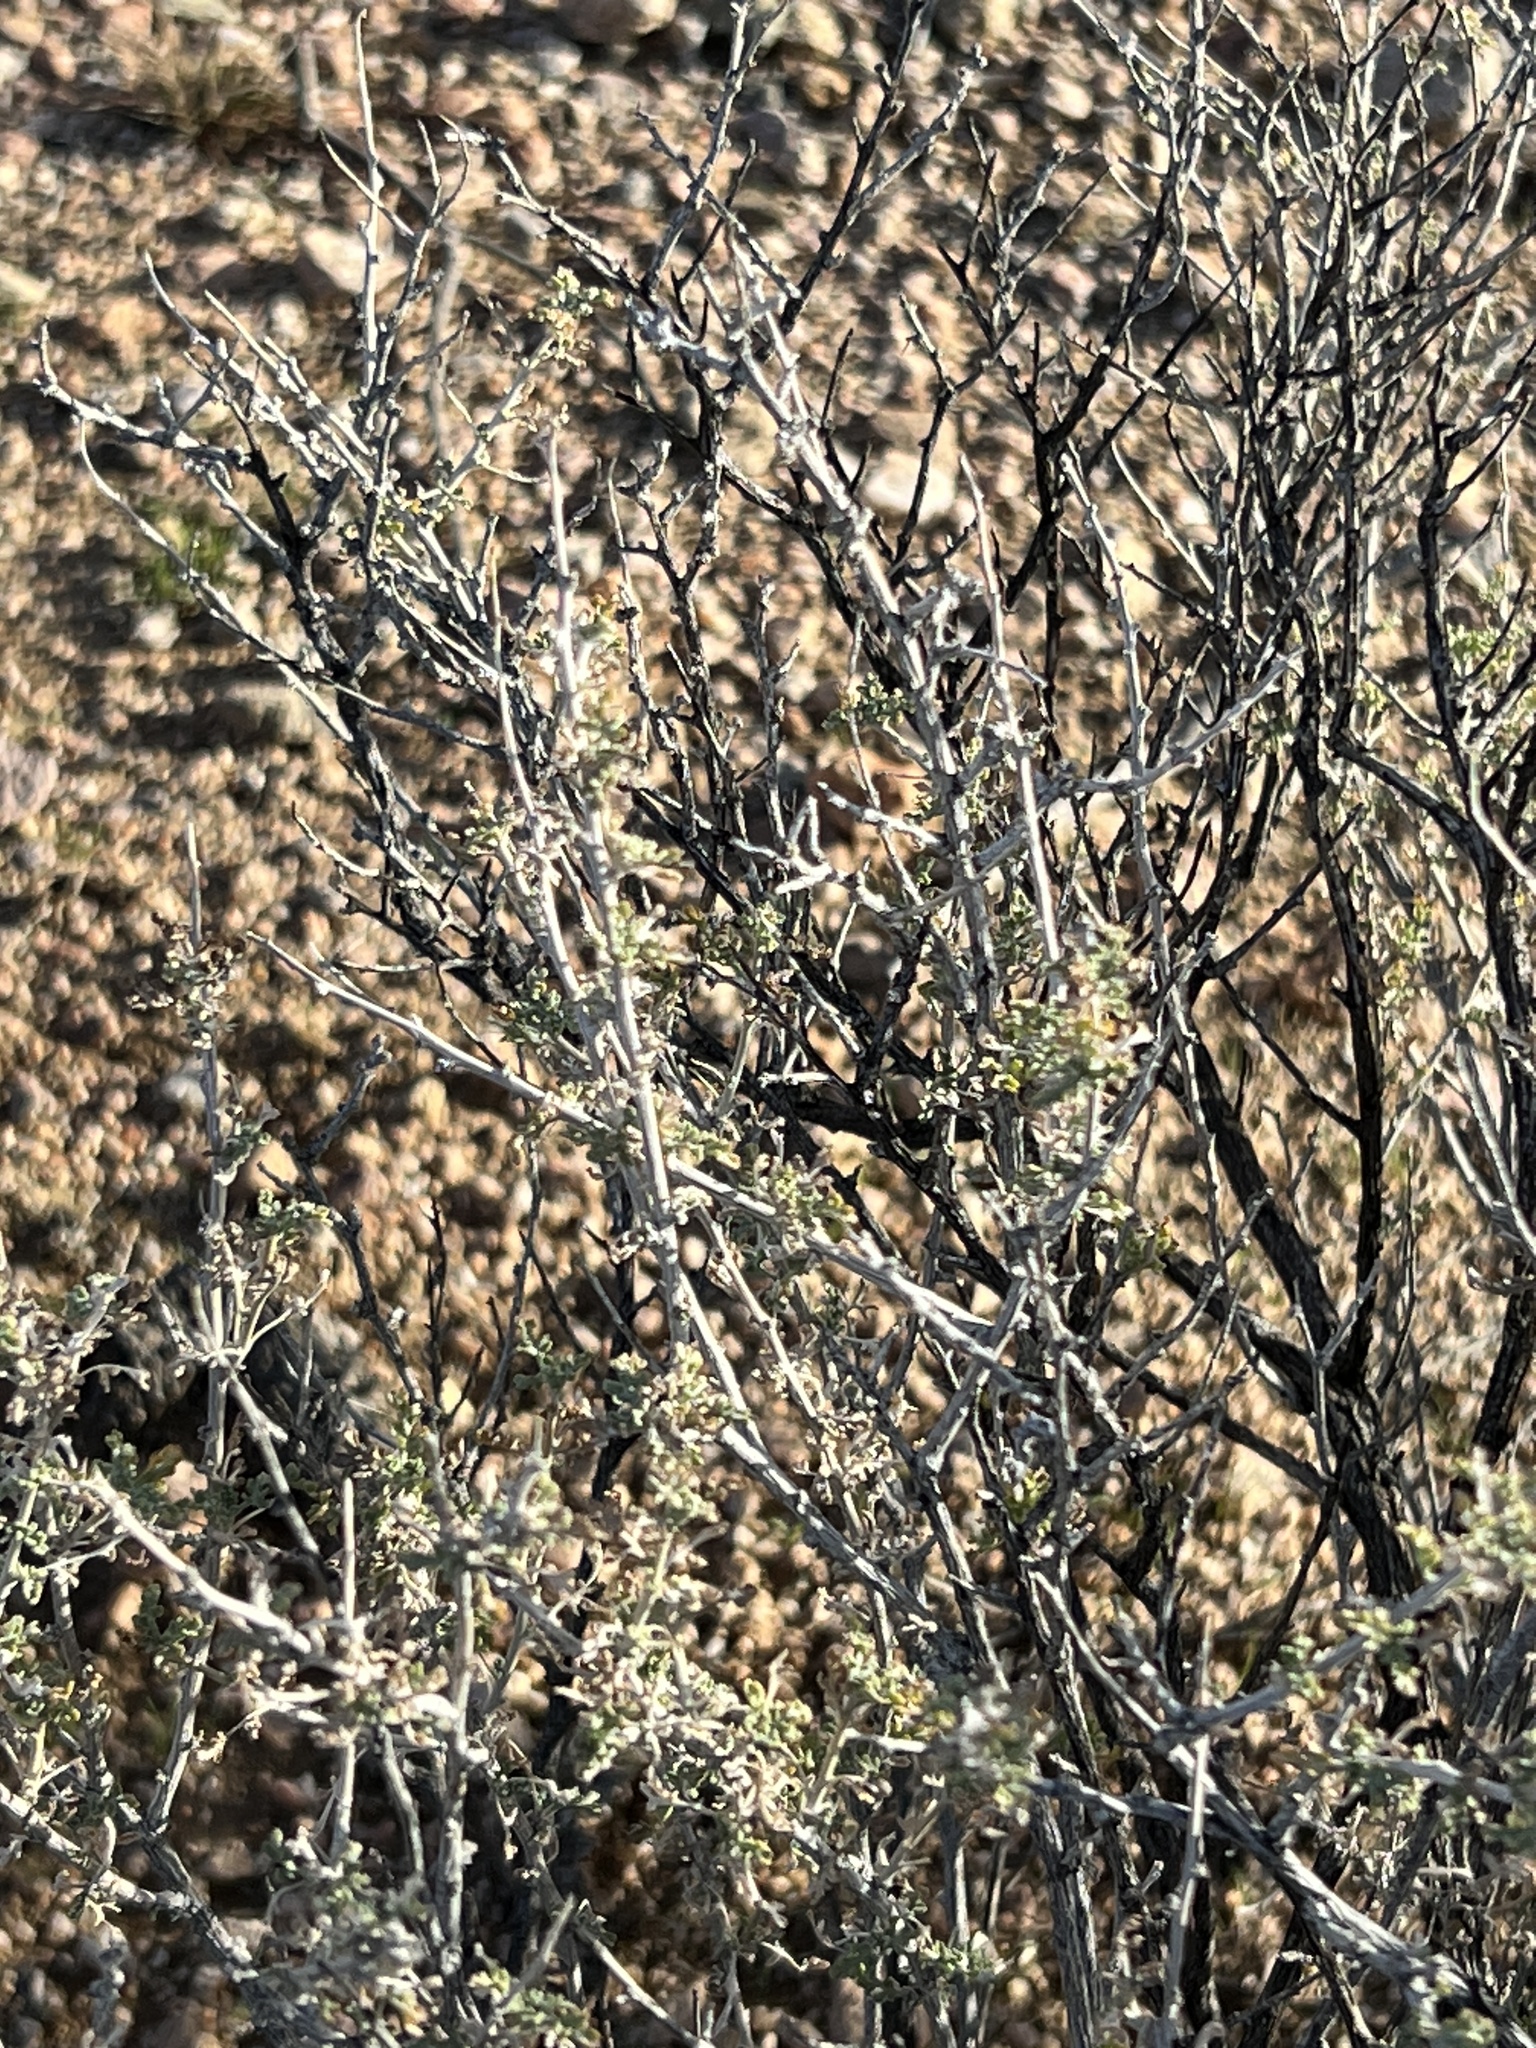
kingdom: Plantae
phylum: Tracheophyta
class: Magnoliopsida
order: Asterales
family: Asteraceae
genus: Ambrosia
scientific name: Ambrosia dumosa
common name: Bur-sage
